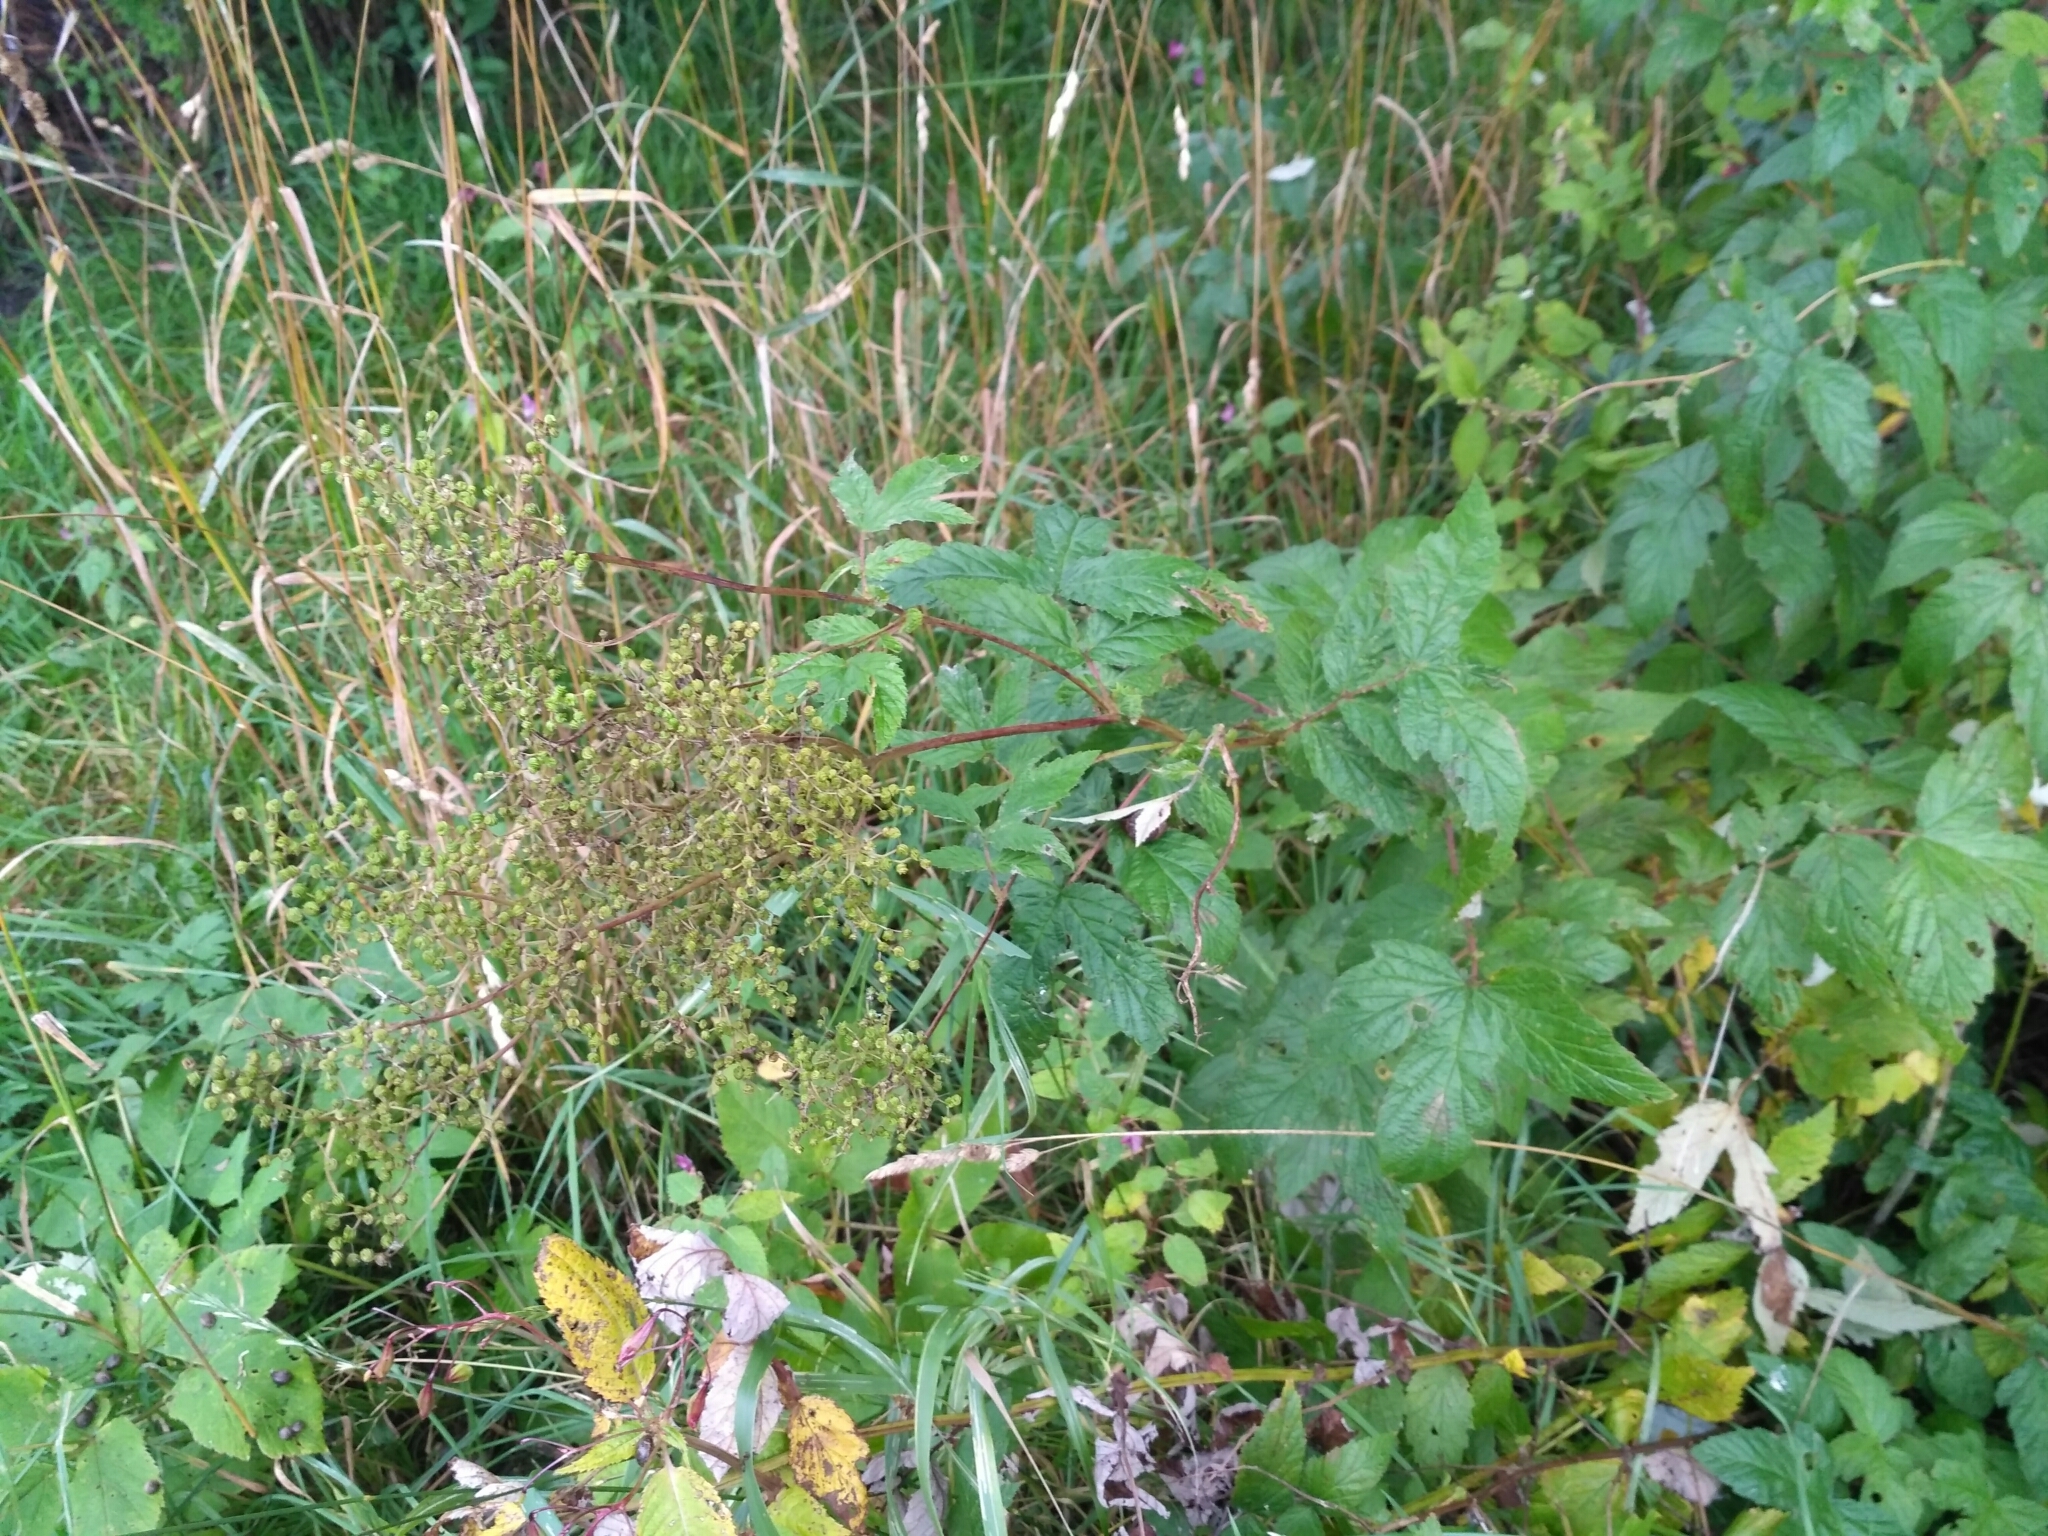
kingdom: Plantae
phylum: Tracheophyta
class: Magnoliopsida
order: Rosales
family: Rosaceae
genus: Filipendula
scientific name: Filipendula ulmaria
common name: Meadowsweet
